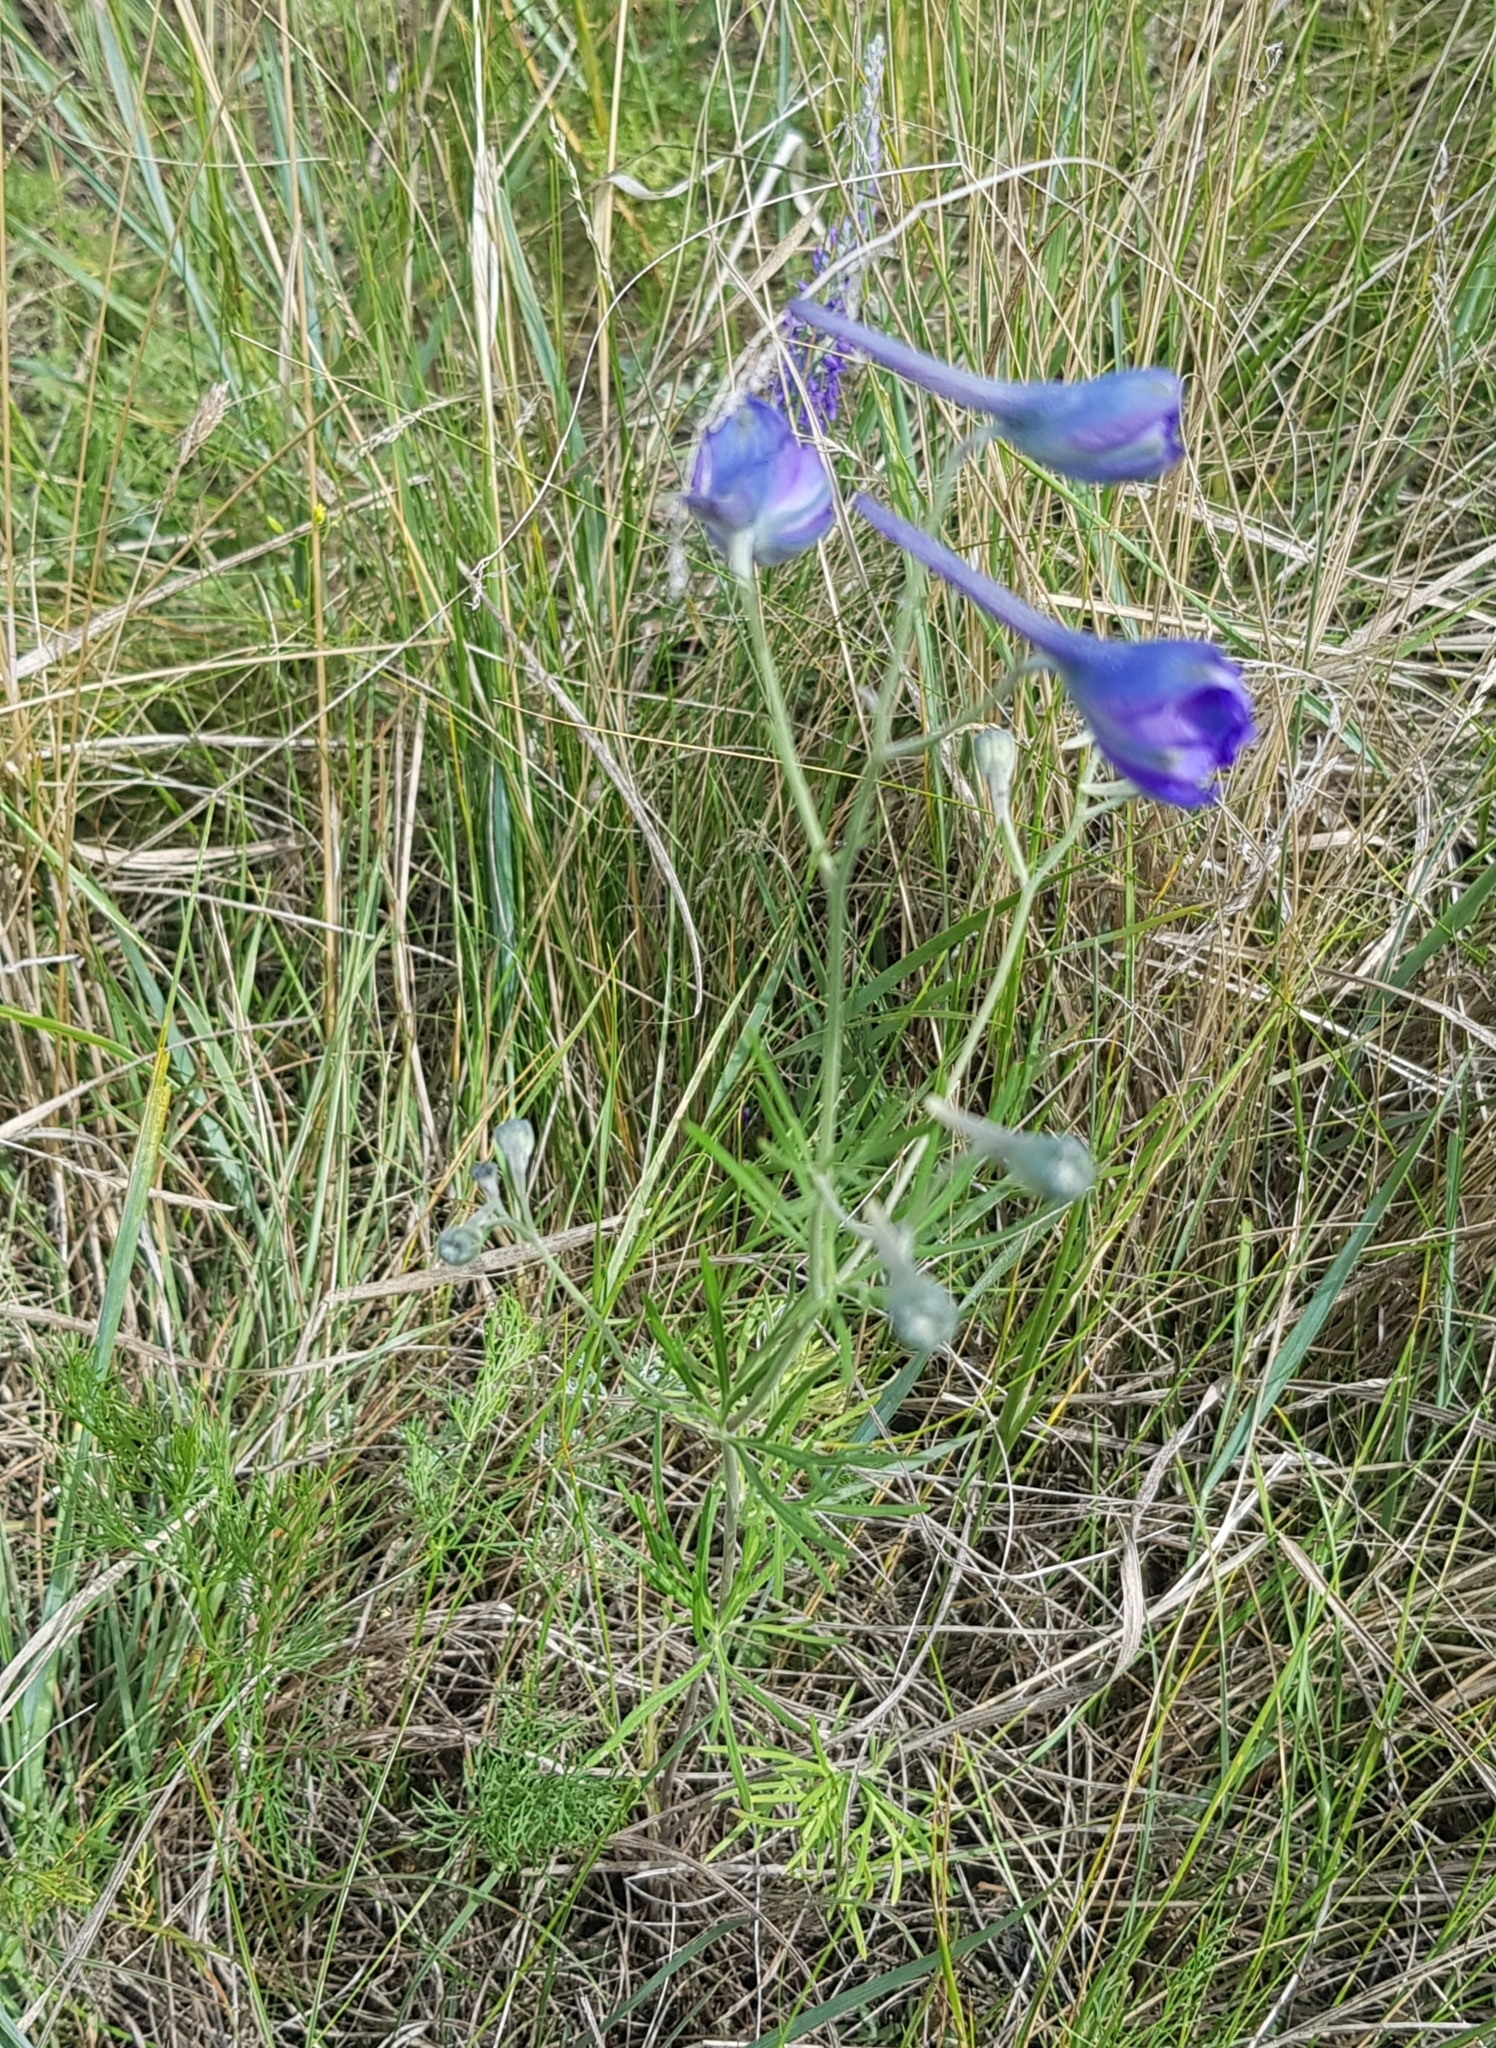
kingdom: Plantae
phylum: Tracheophyta
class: Magnoliopsida
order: Ranunculales
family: Ranunculaceae
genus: Delphinium
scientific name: Delphinium grandiflorum
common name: Siberian larkspur
